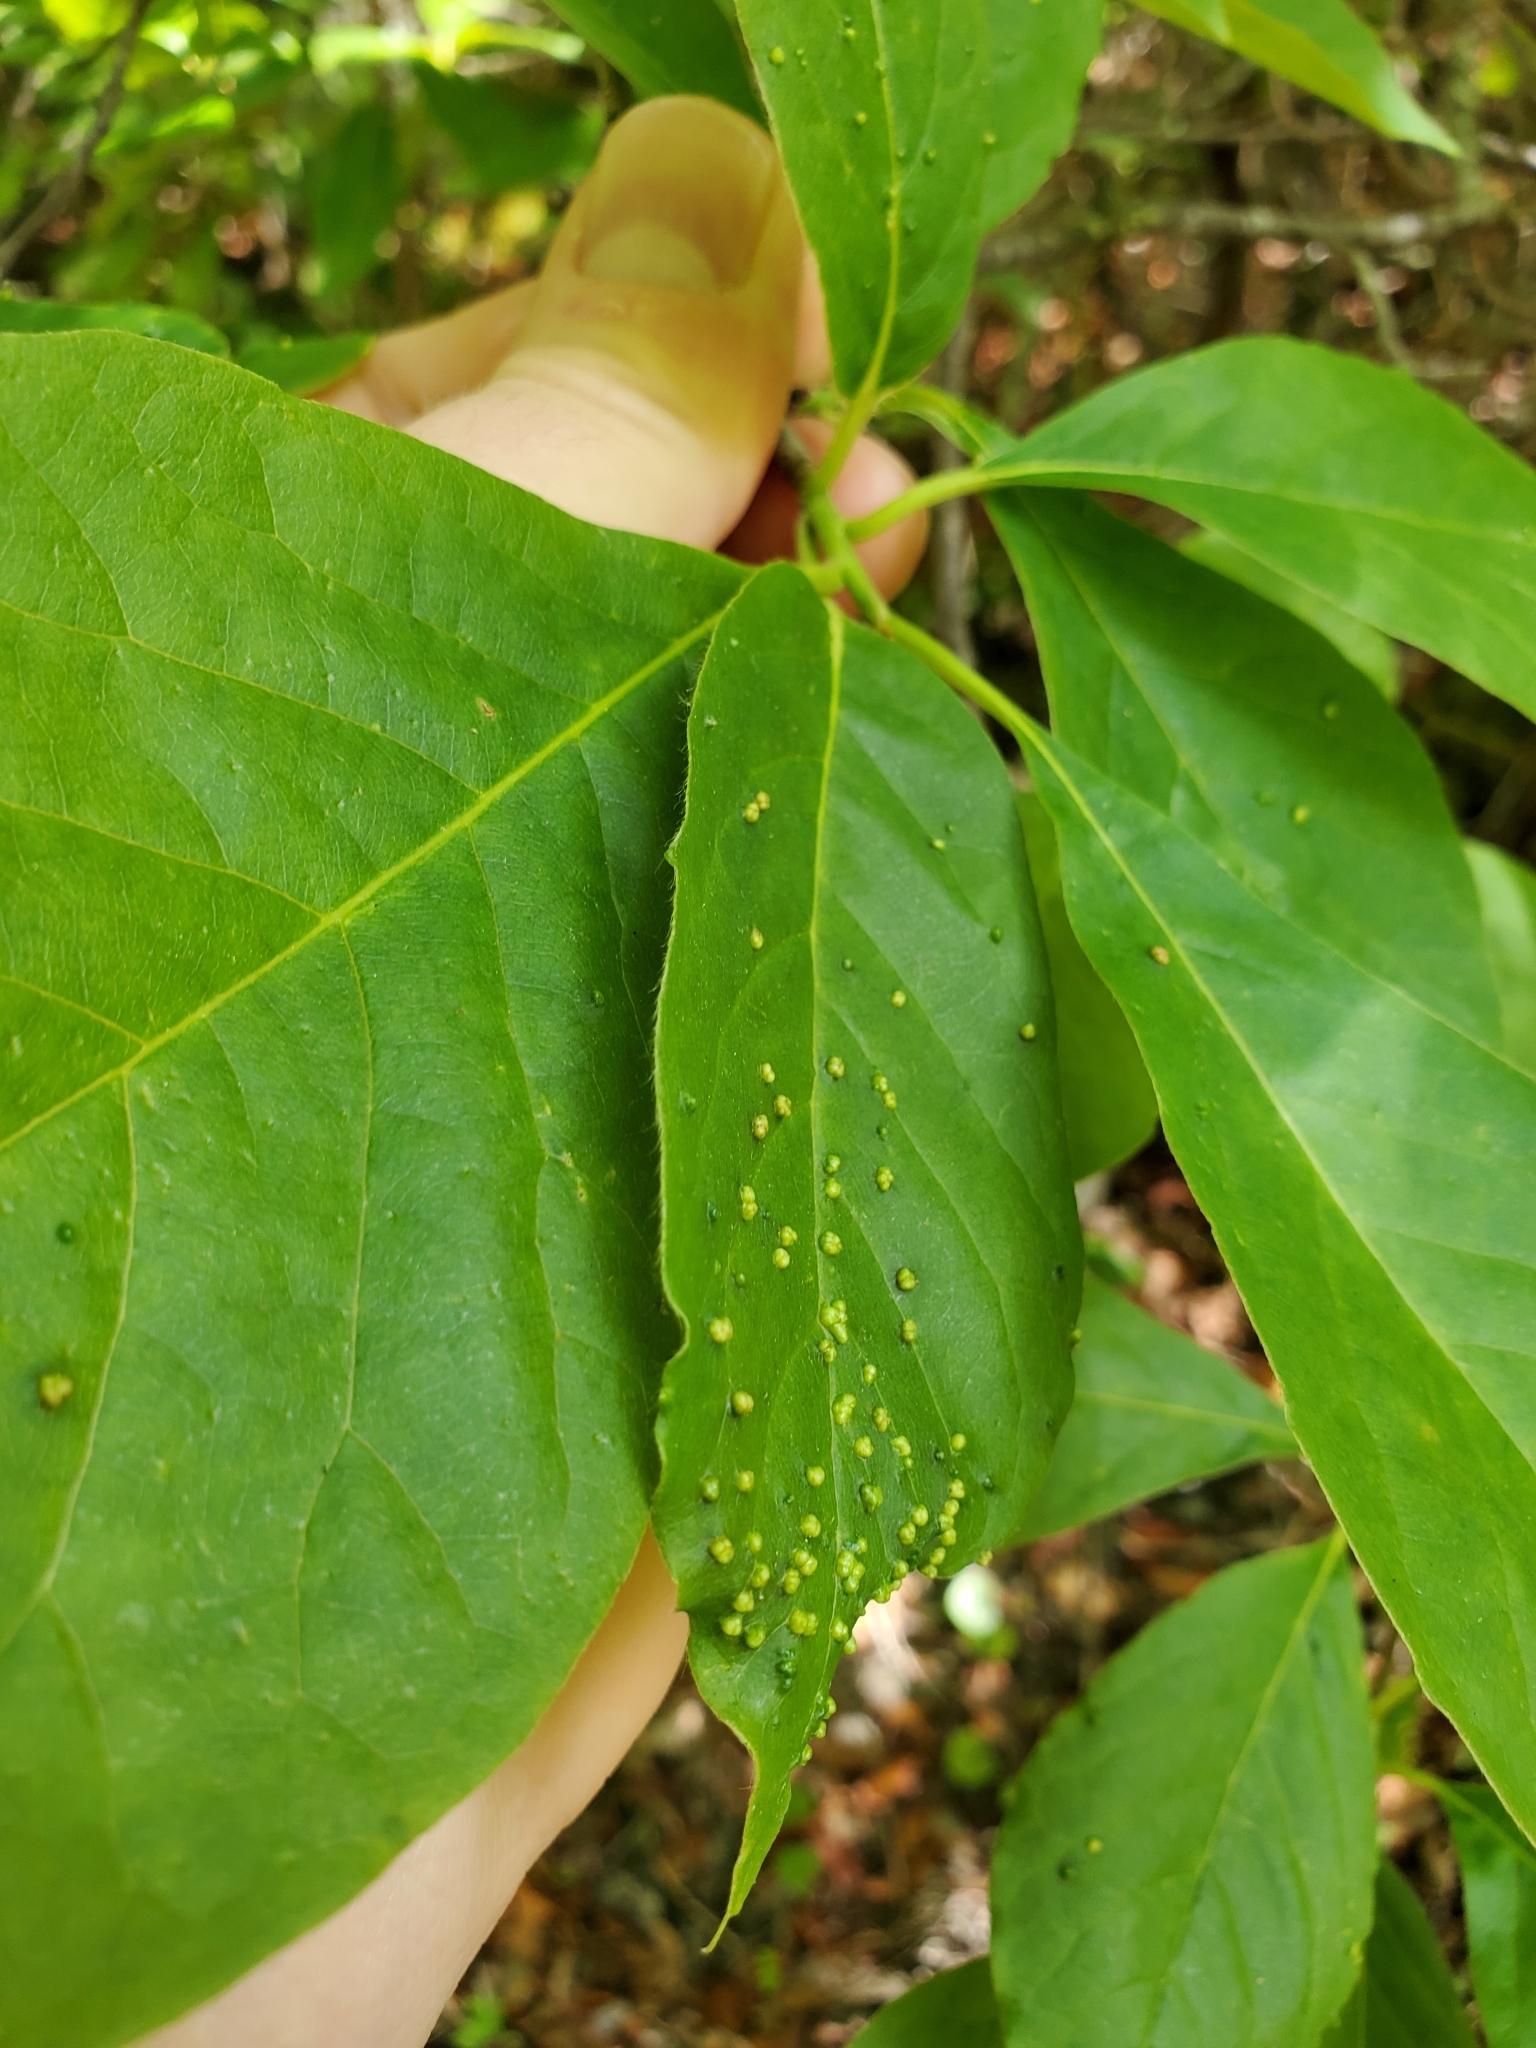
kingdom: Animalia
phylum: Arthropoda
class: Arachnida
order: Trombidiformes
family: Eriophyidae
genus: Aceria
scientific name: Aceria
